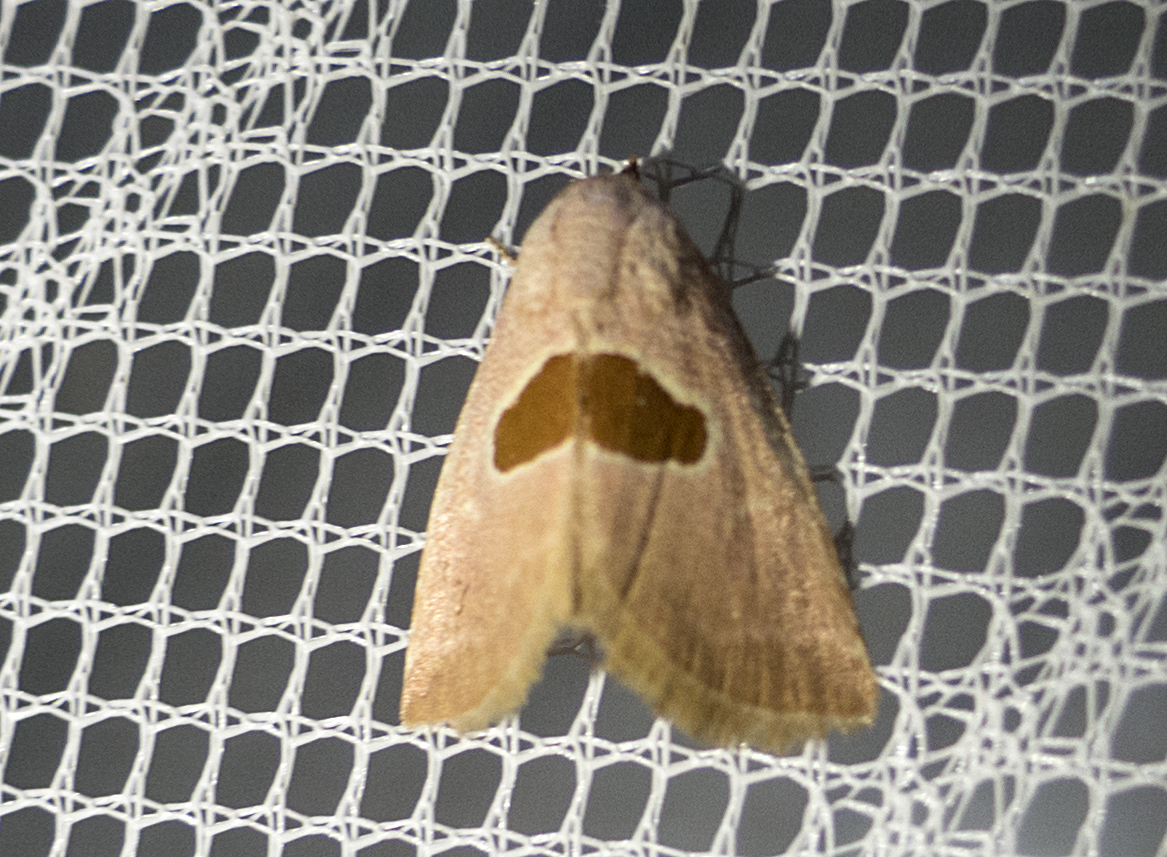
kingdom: Animalia
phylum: Arthropoda
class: Insecta
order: Lepidoptera
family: Noctuidae
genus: Calymma
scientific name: Calymma communimacula
